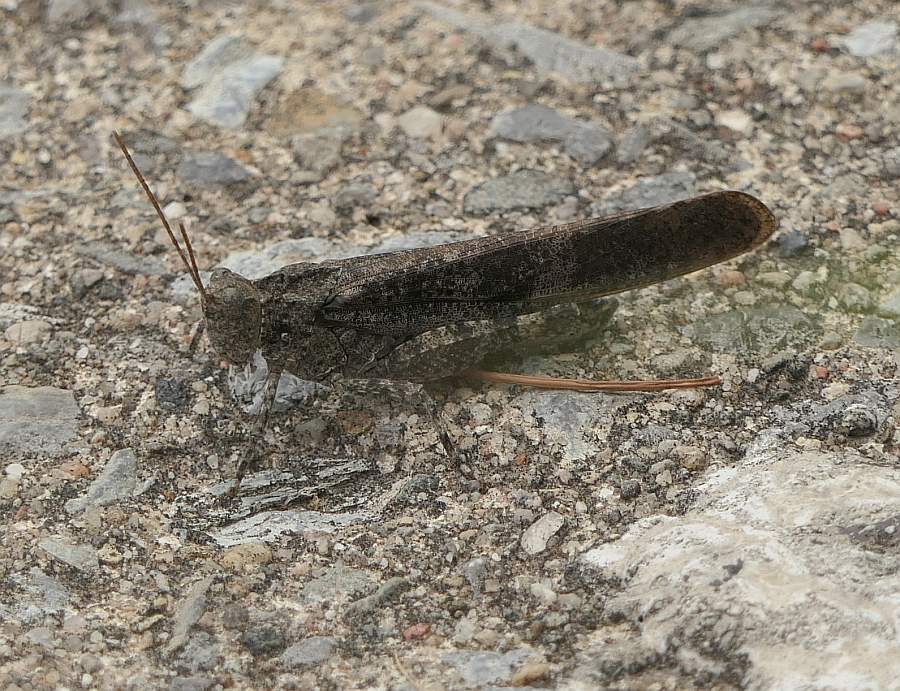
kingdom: Animalia
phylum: Arthropoda
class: Insecta
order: Orthoptera
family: Acrididae
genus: Dissosteira
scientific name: Dissosteira carolina
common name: Carolina grasshopper
